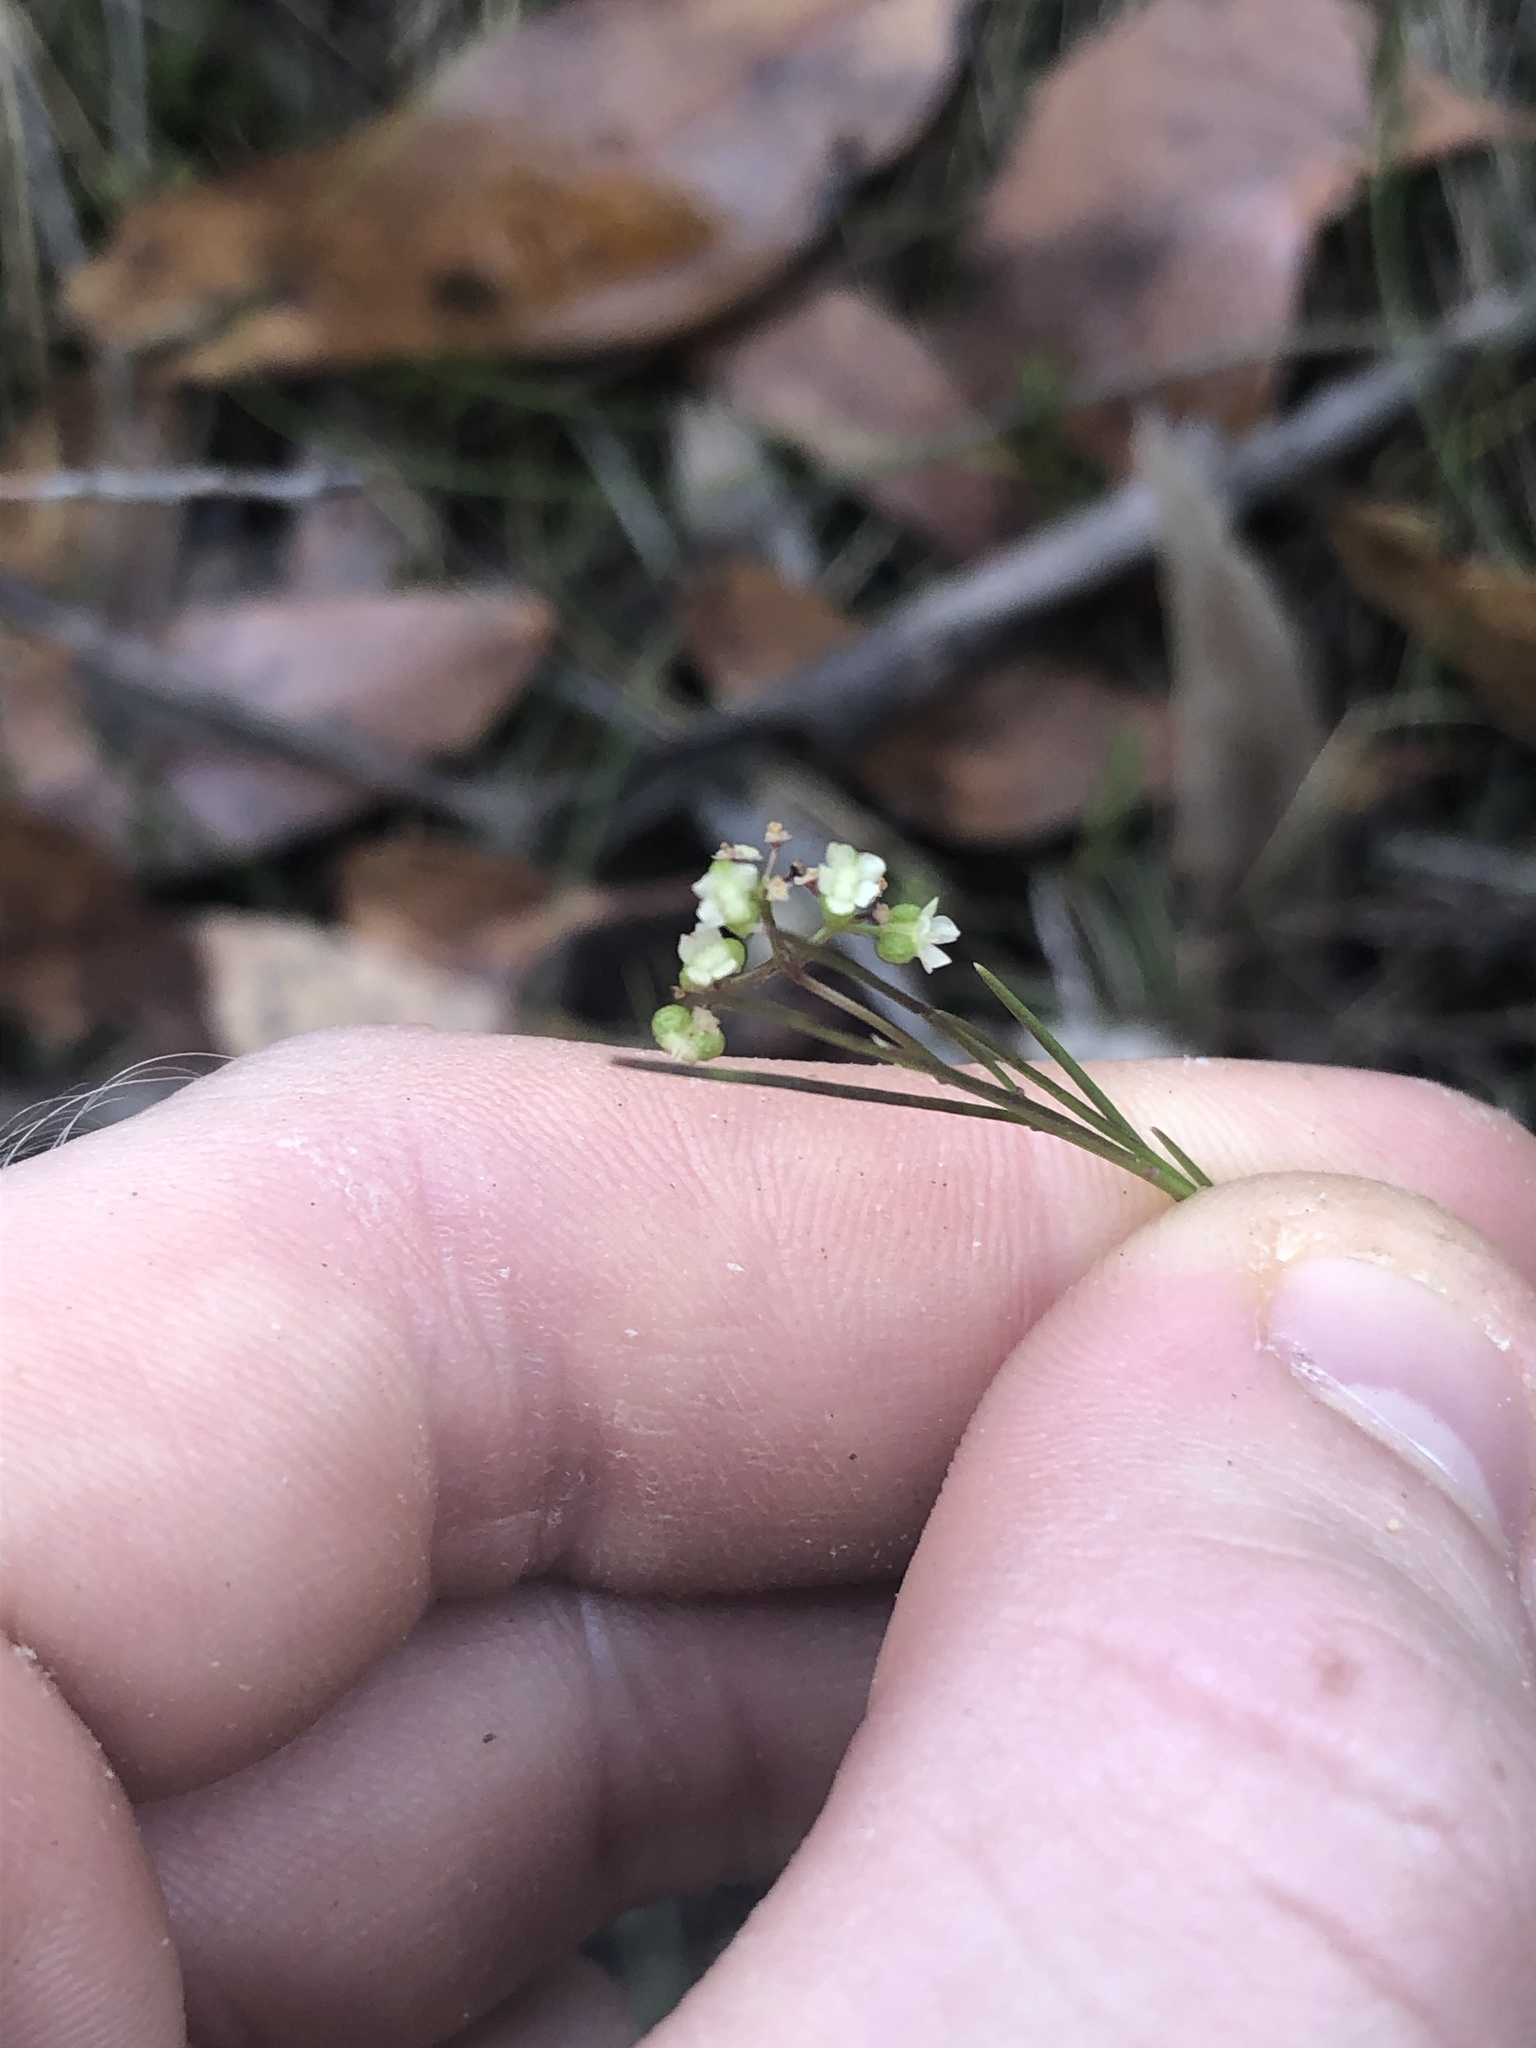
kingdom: Plantae
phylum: Tracheophyta
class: Magnoliopsida
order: Apiales
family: Apiaceae
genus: Platysace
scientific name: Platysace heterophylla
